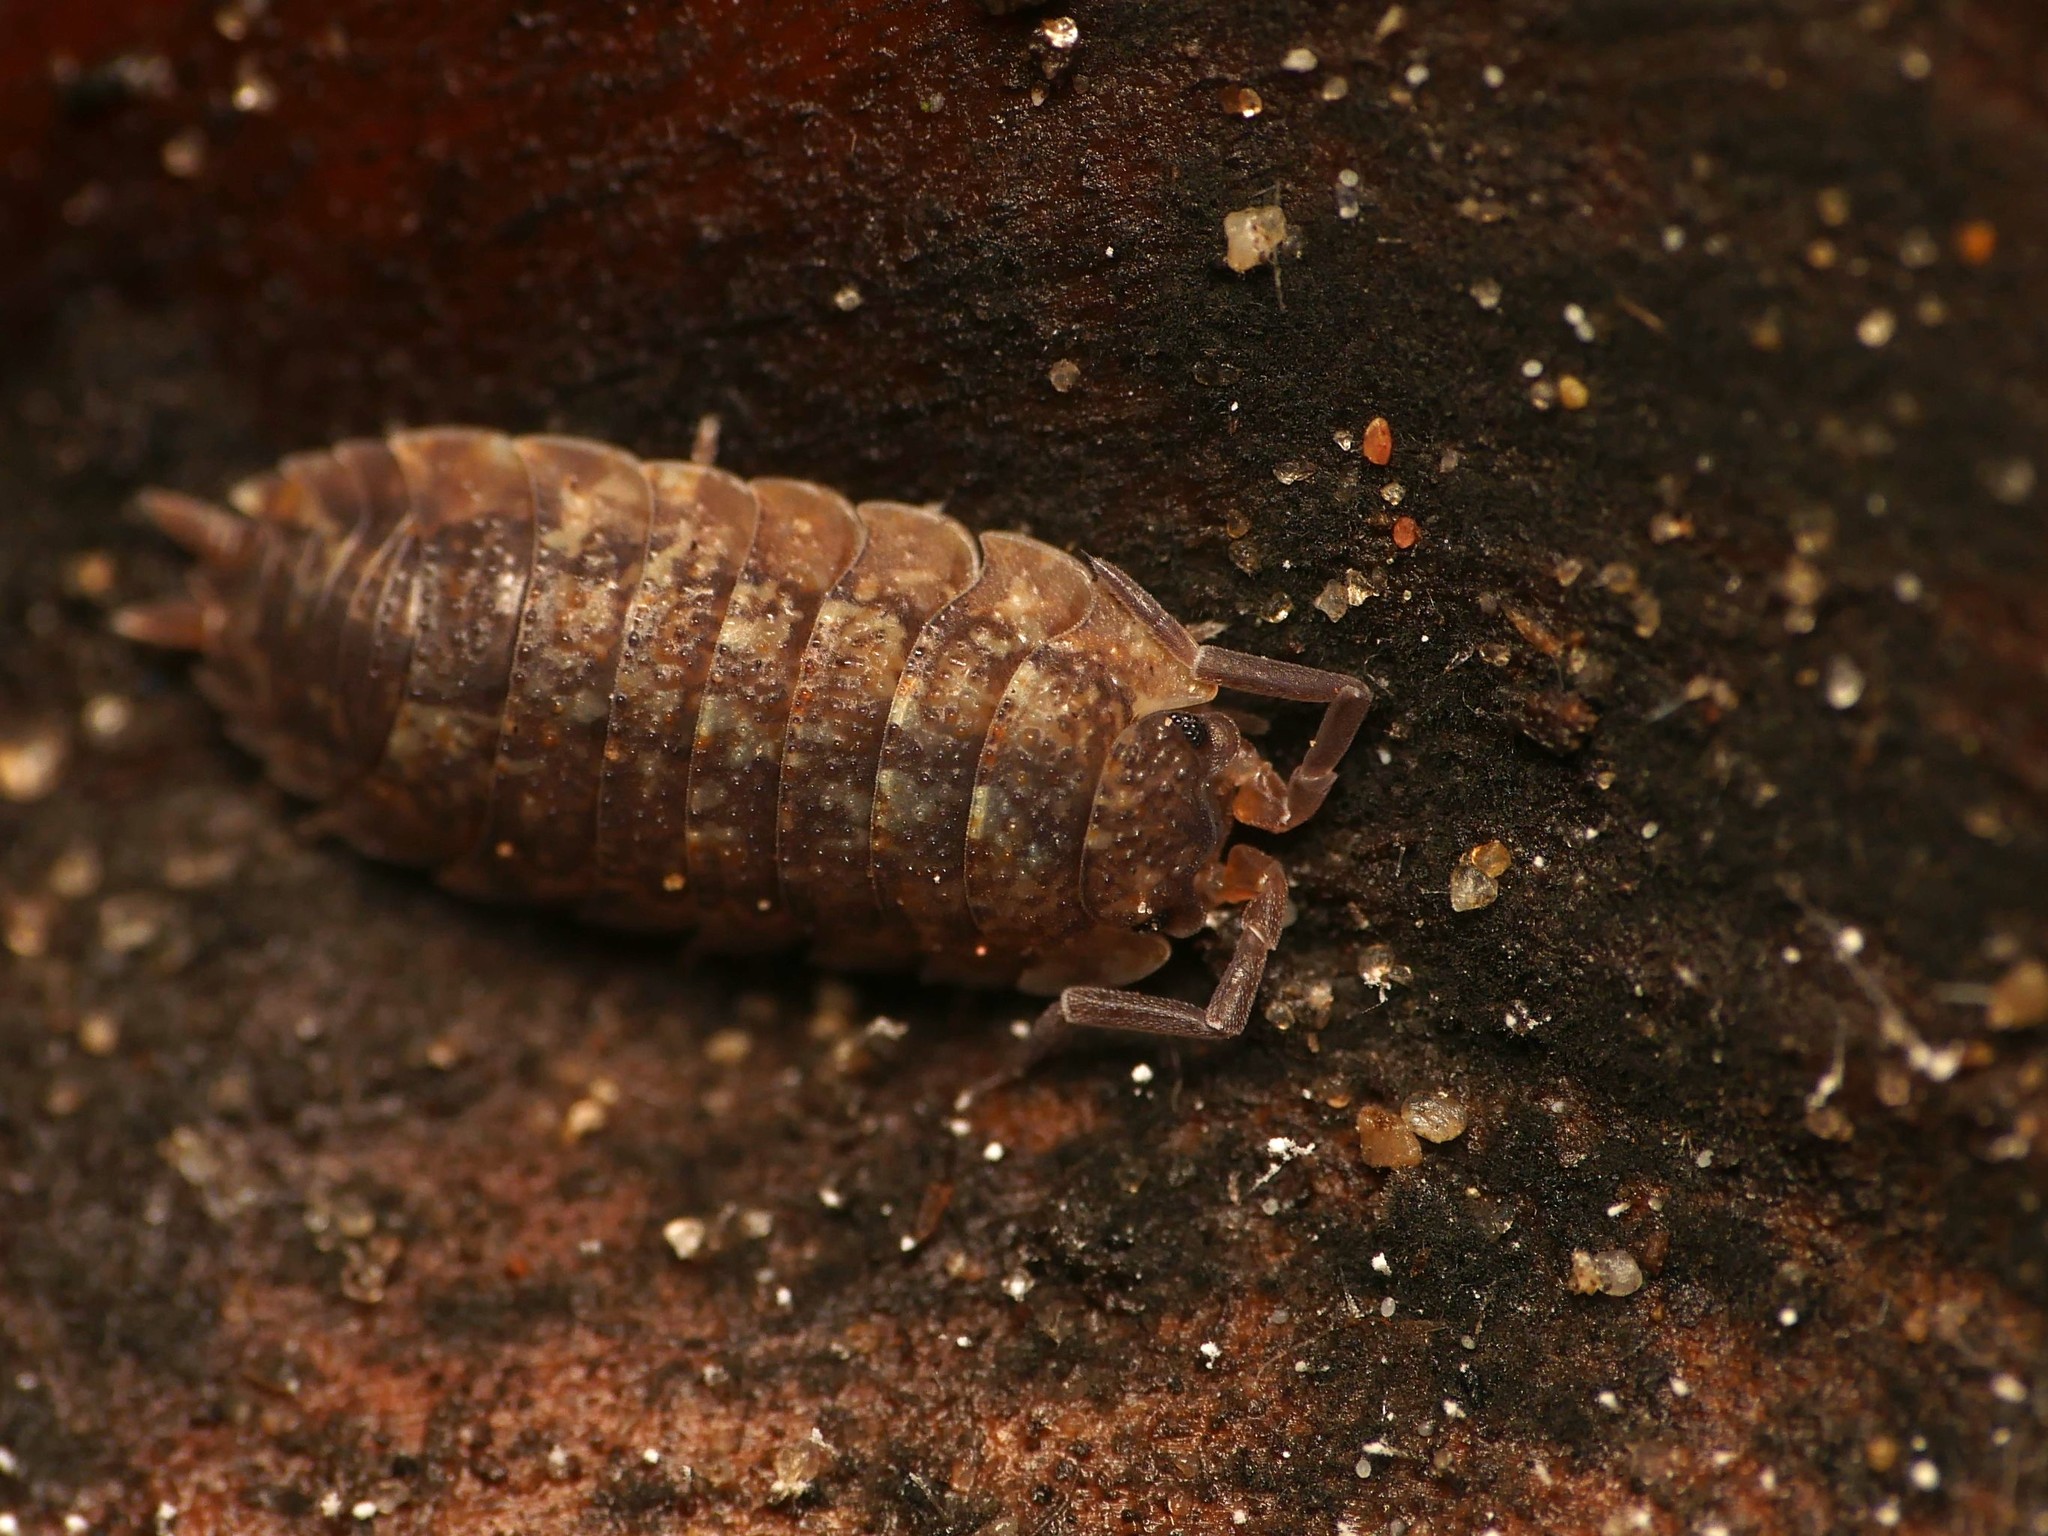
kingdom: Animalia
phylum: Arthropoda
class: Malacostraca
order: Isopoda
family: Porcellionidae
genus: Porcellio
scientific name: Porcellio scaber
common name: Common rough woodlouse
